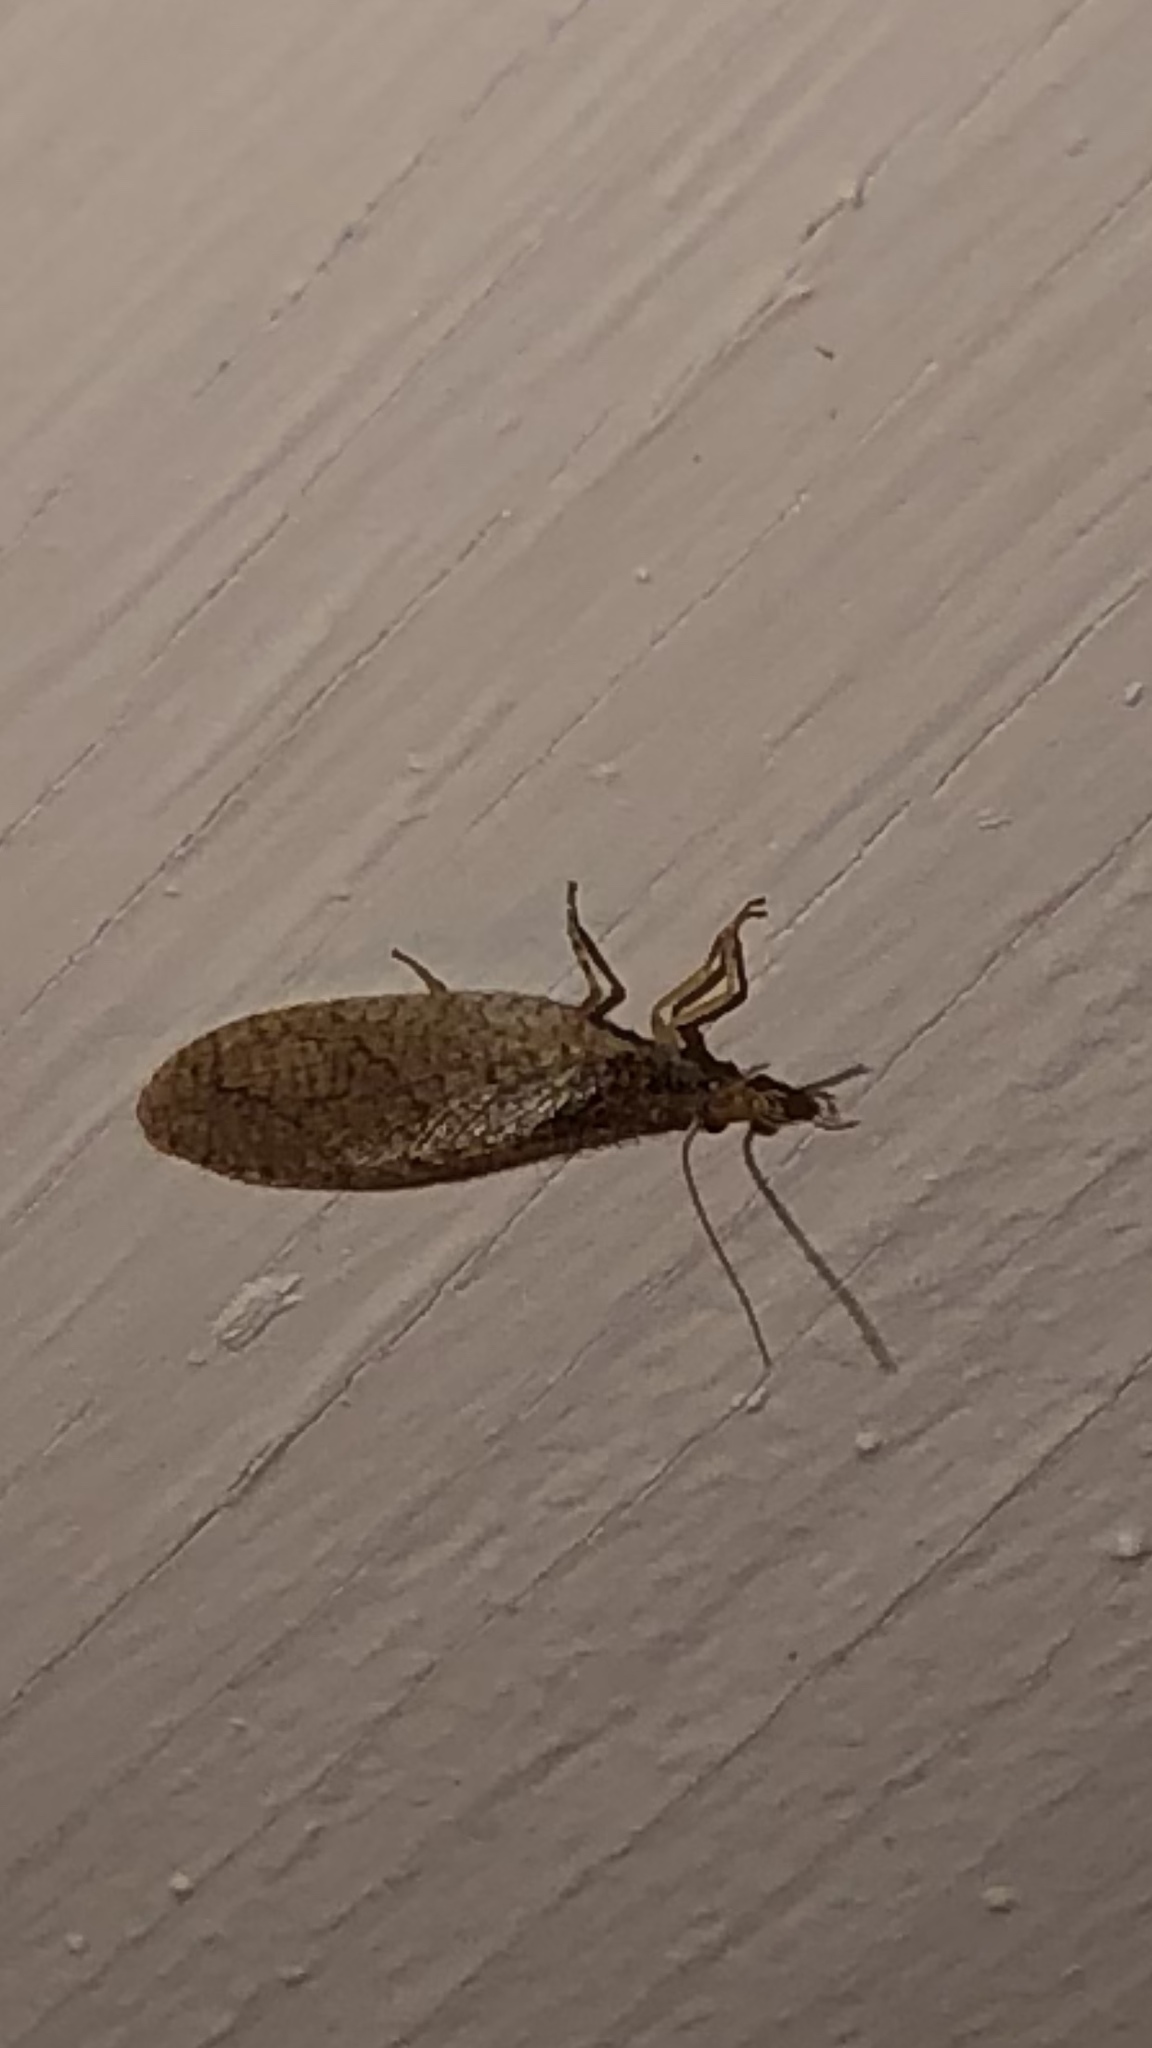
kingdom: Animalia
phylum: Arthropoda
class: Insecta
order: Neuroptera
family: Hemerobiidae
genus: Micromus
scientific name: Micromus posticus
